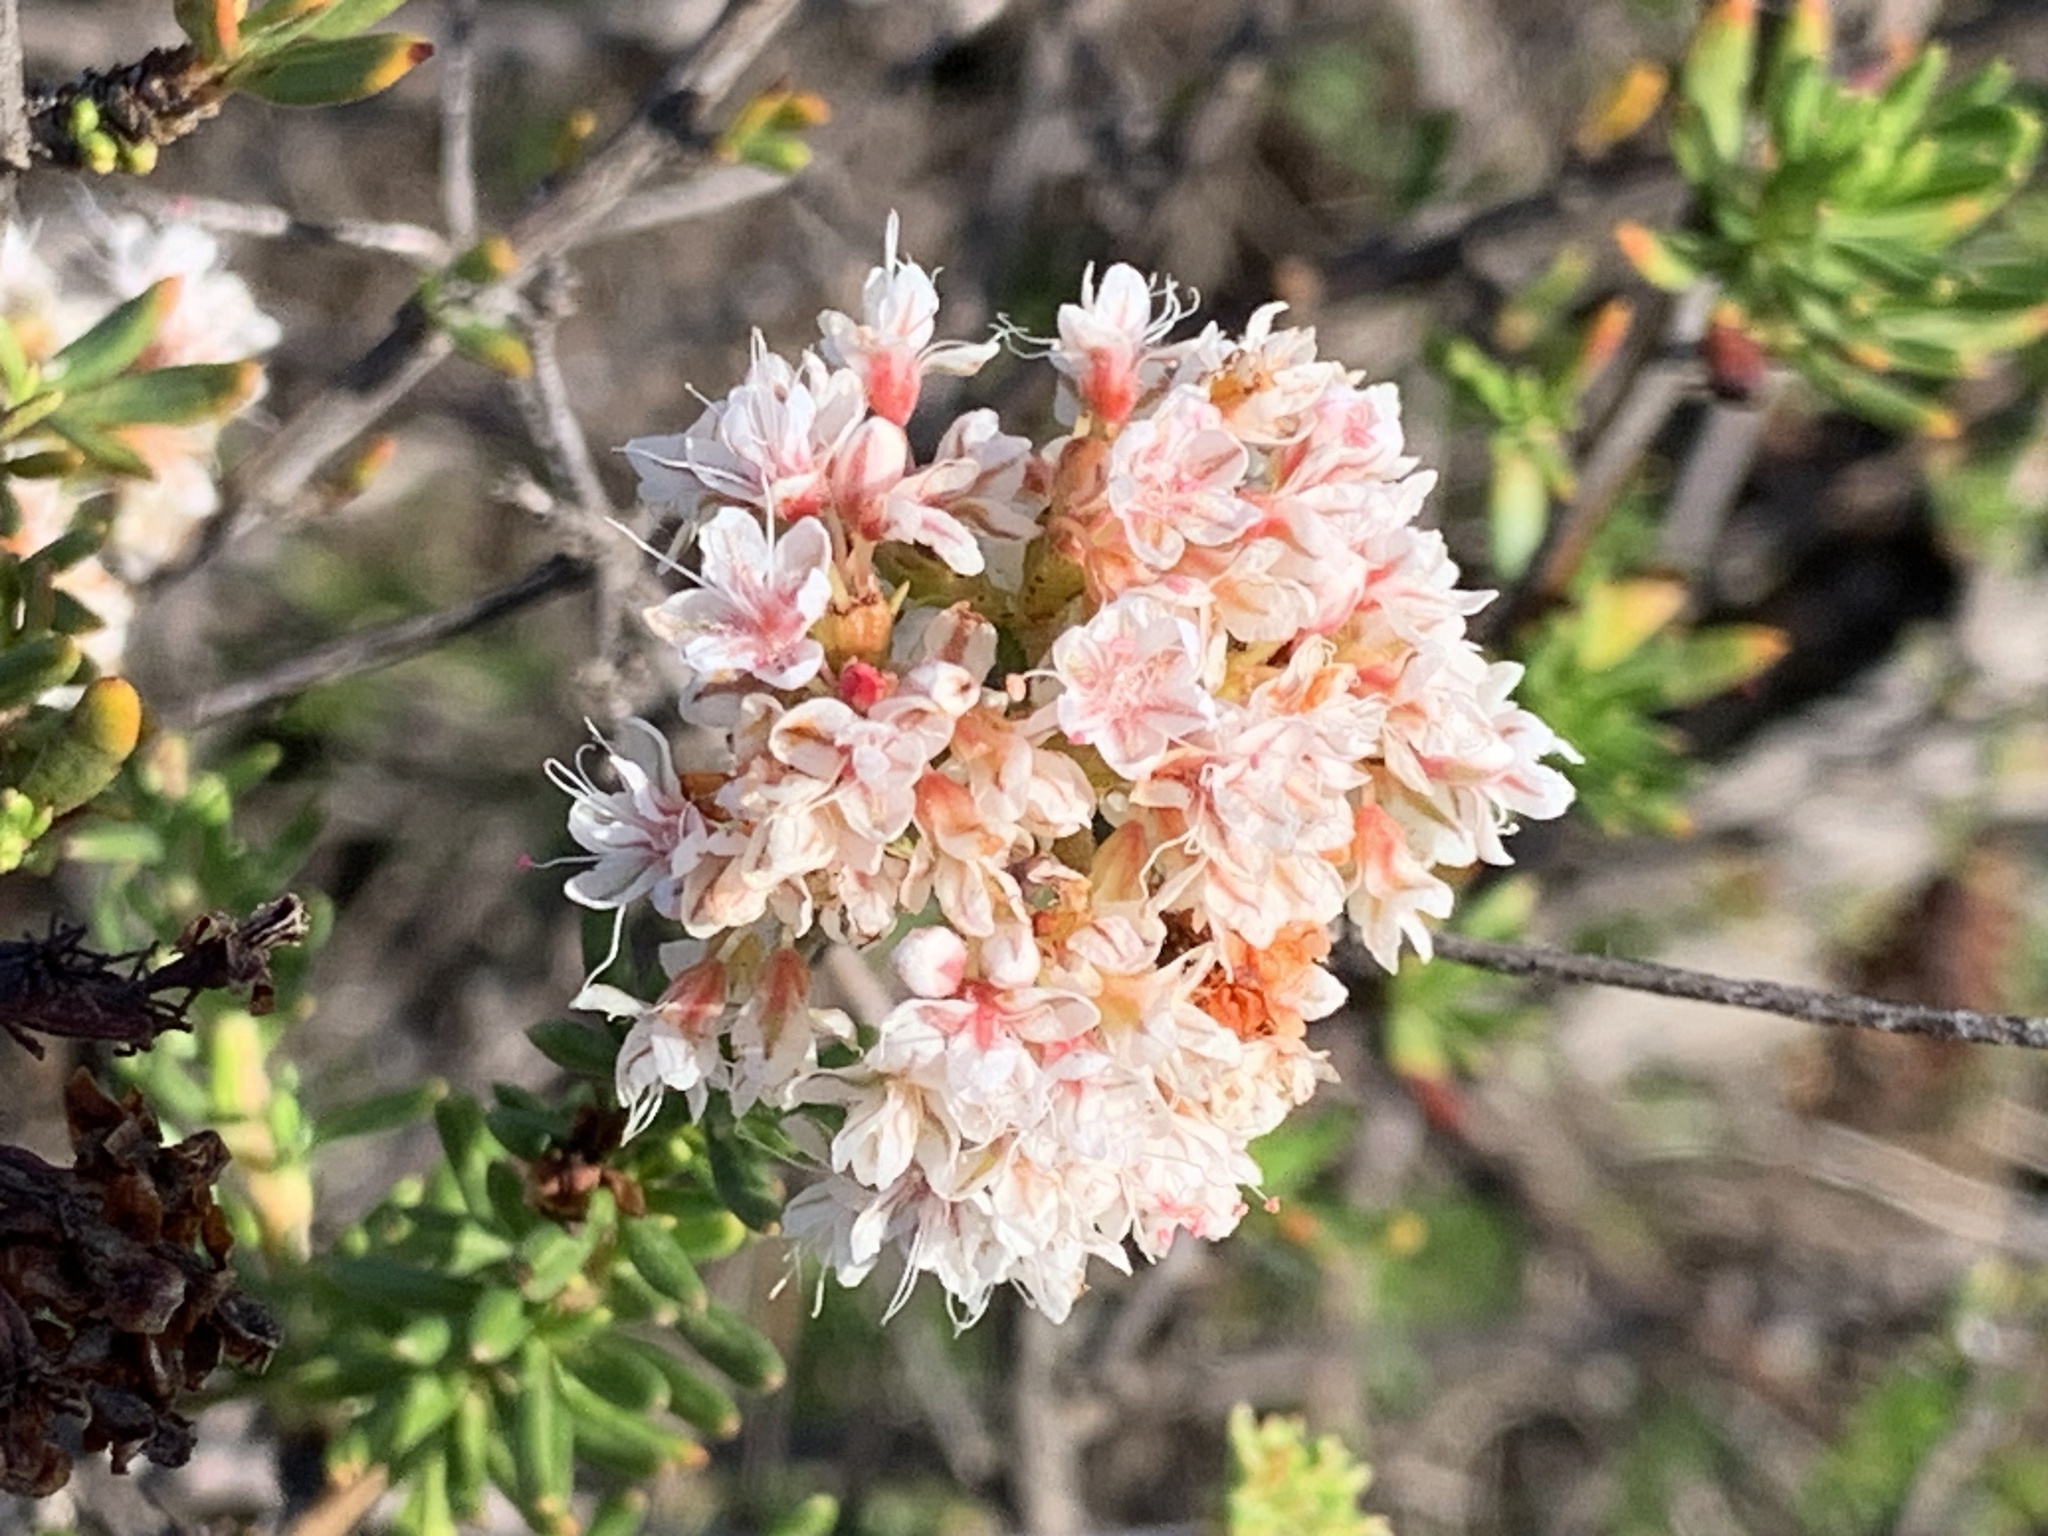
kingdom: Plantae
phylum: Tracheophyta
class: Magnoliopsida
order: Caryophyllales
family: Polygonaceae
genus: Eriogonum
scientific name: Eriogonum fasciculatum
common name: California wild buckwheat
